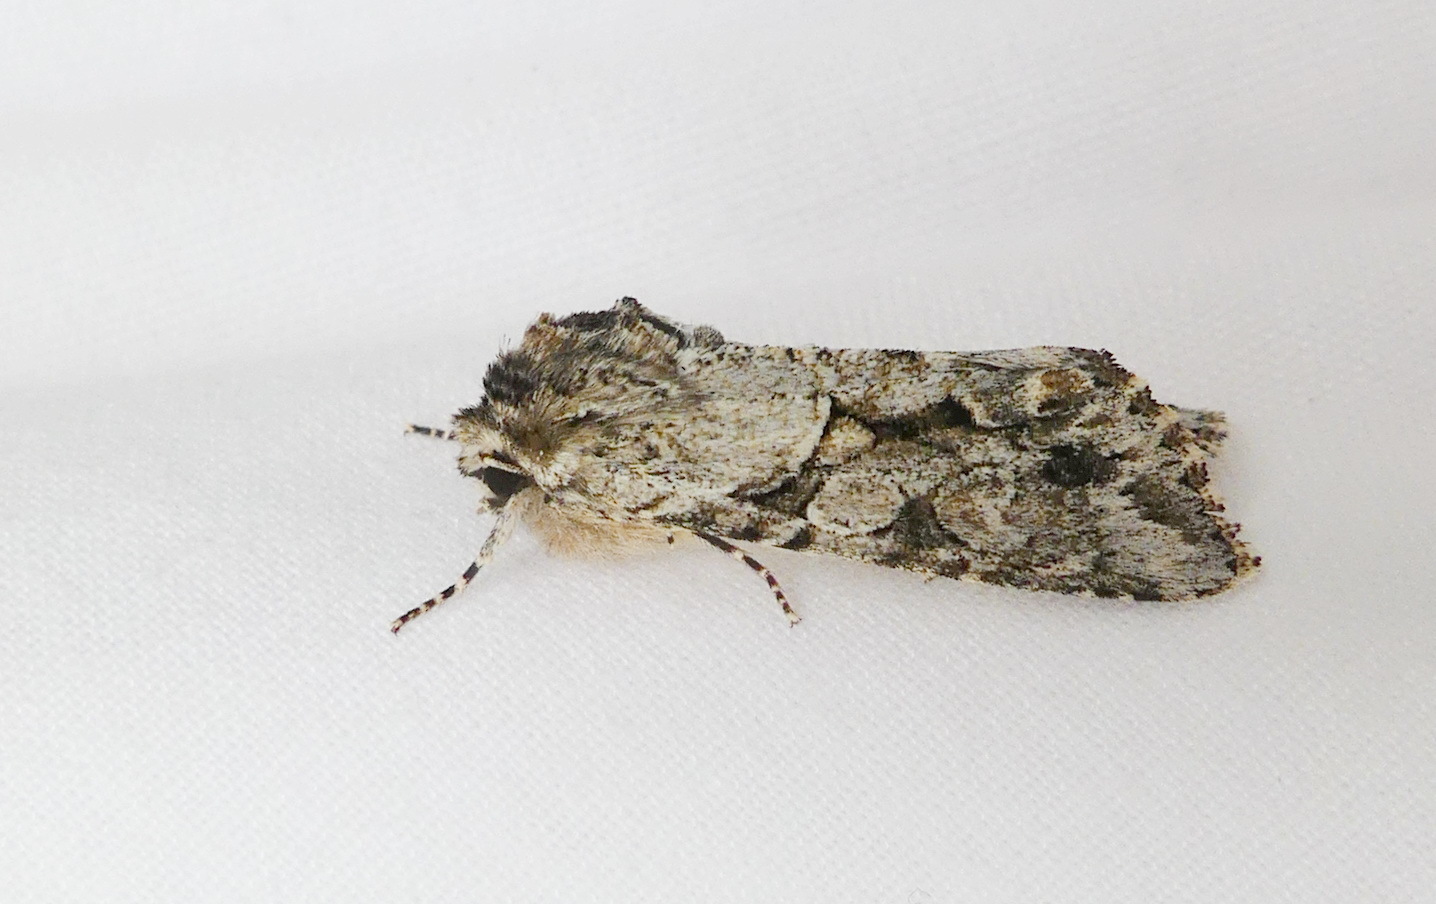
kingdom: Animalia
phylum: Arthropoda
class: Insecta
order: Lepidoptera
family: Noctuidae
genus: Achatia
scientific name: Achatia distincta
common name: Distinct quaker
